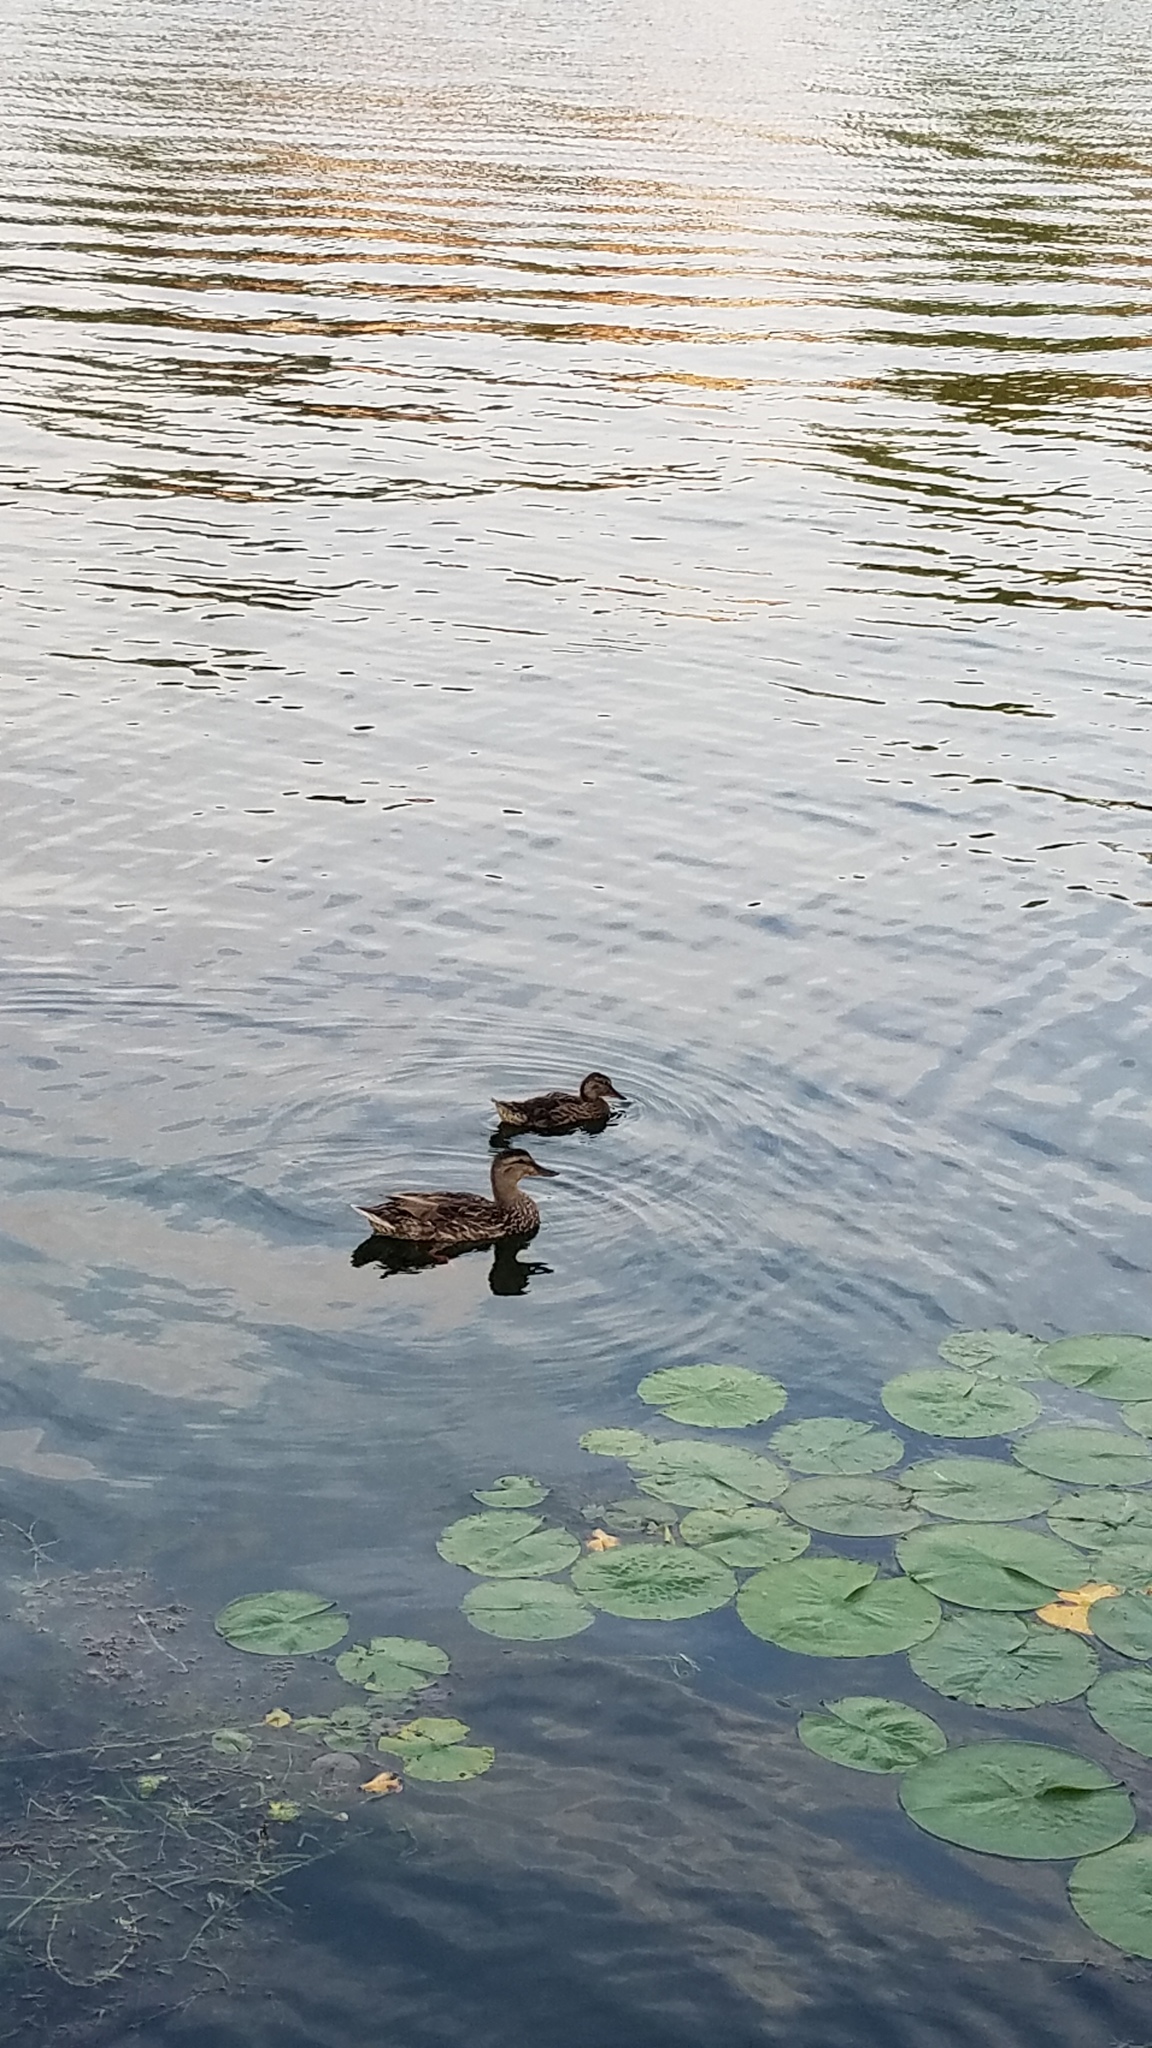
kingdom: Animalia
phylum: Chordata
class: Aves
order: Anseriformes
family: Anatidae
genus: Anas
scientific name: Anas platyrhynchos
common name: Mallard
